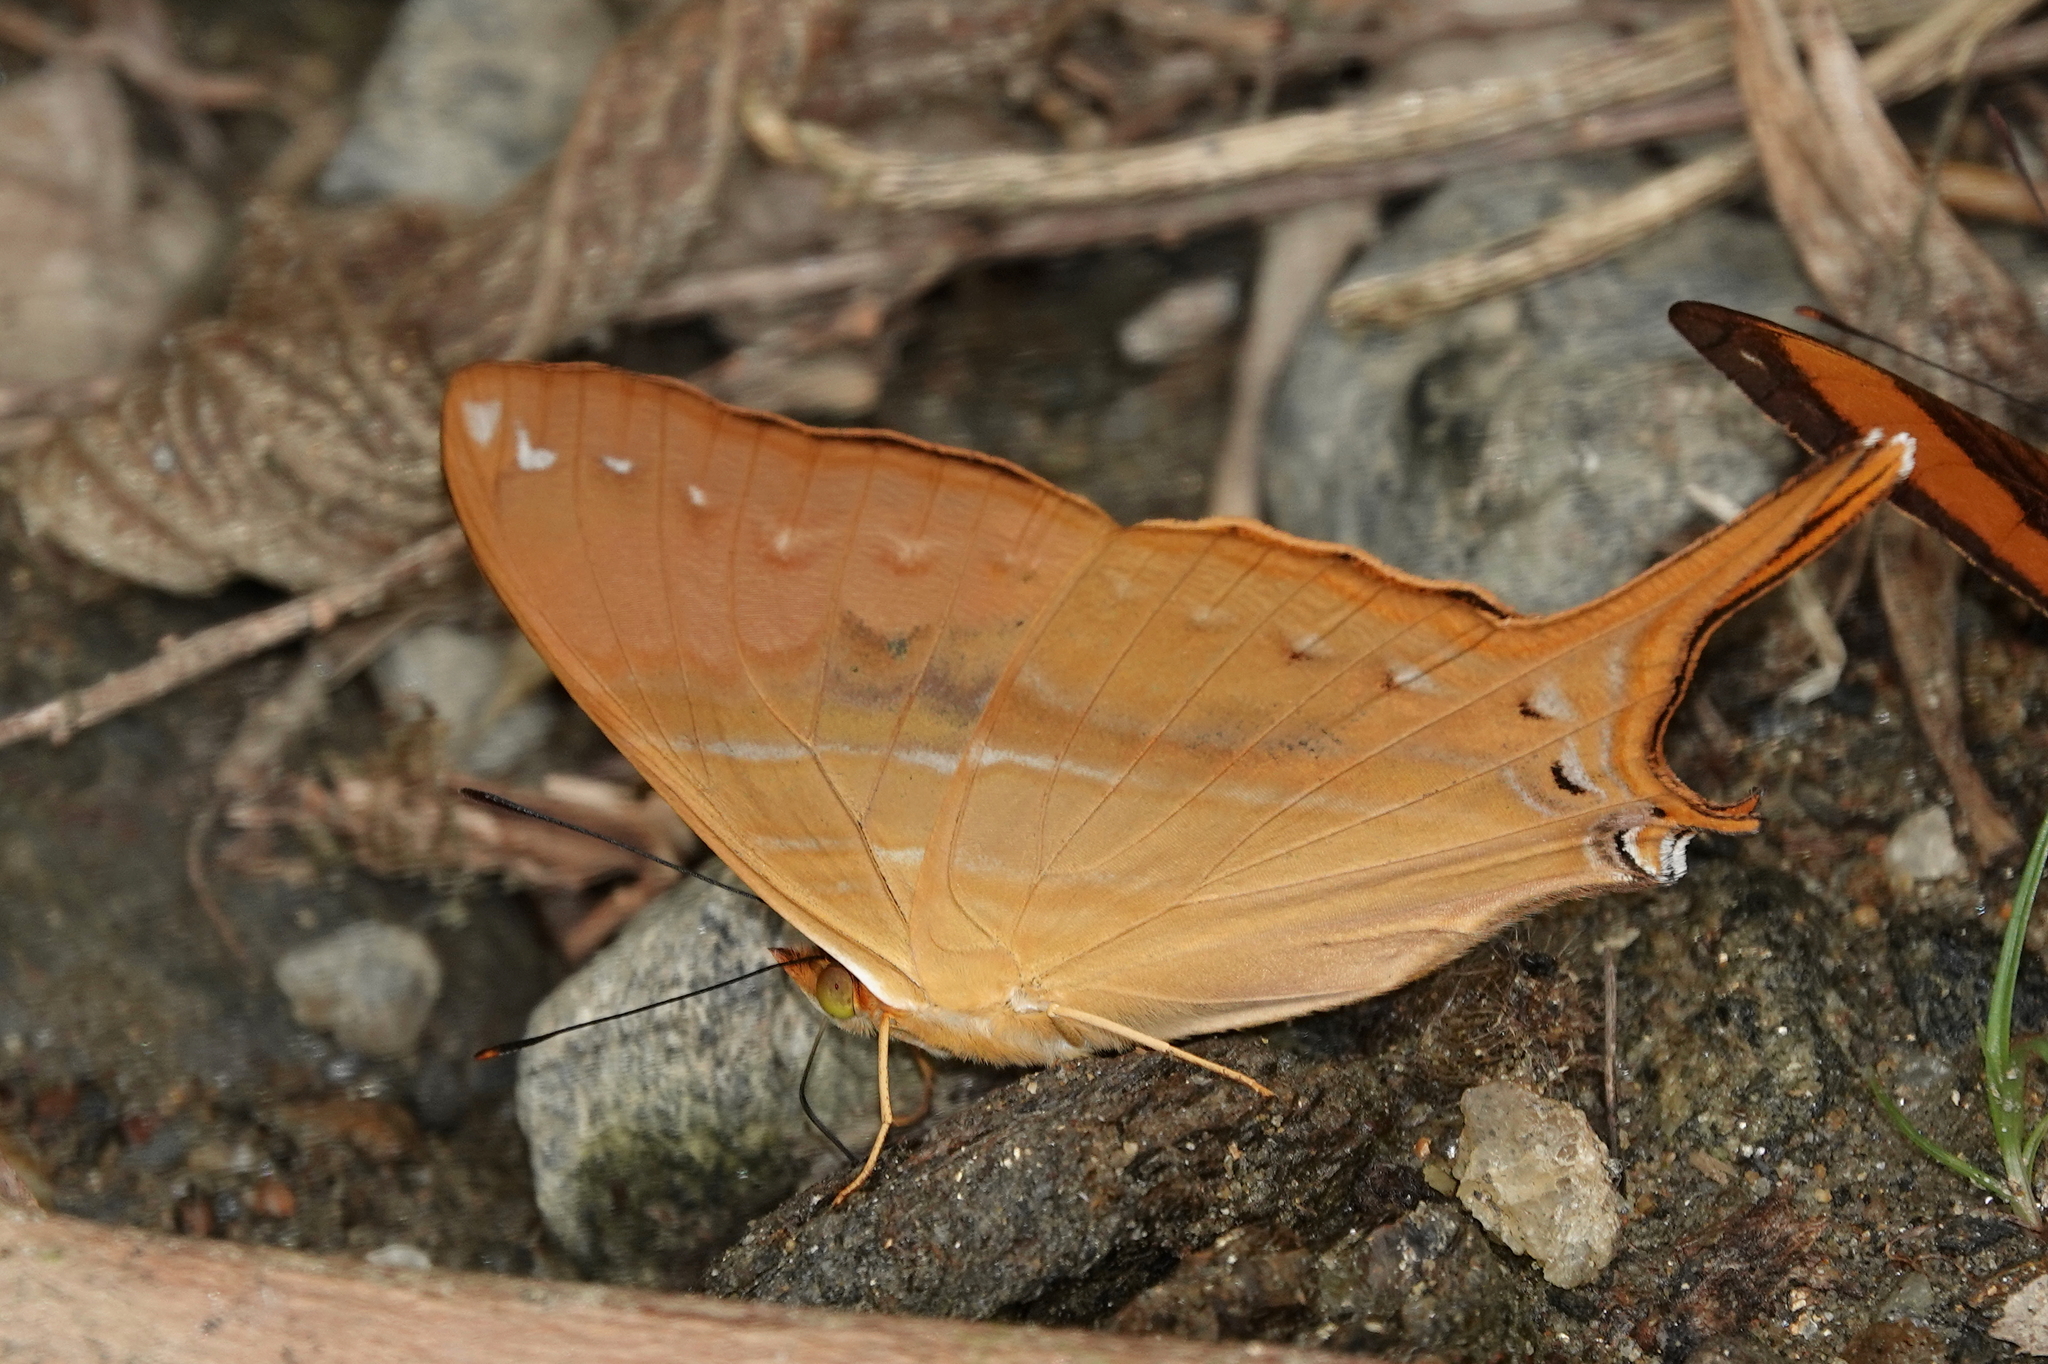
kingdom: Animalia
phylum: Arthropoda
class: Insecta
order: Lepidoptera
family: Nymphalidae
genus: Marpesia
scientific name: Marpesia corinna
